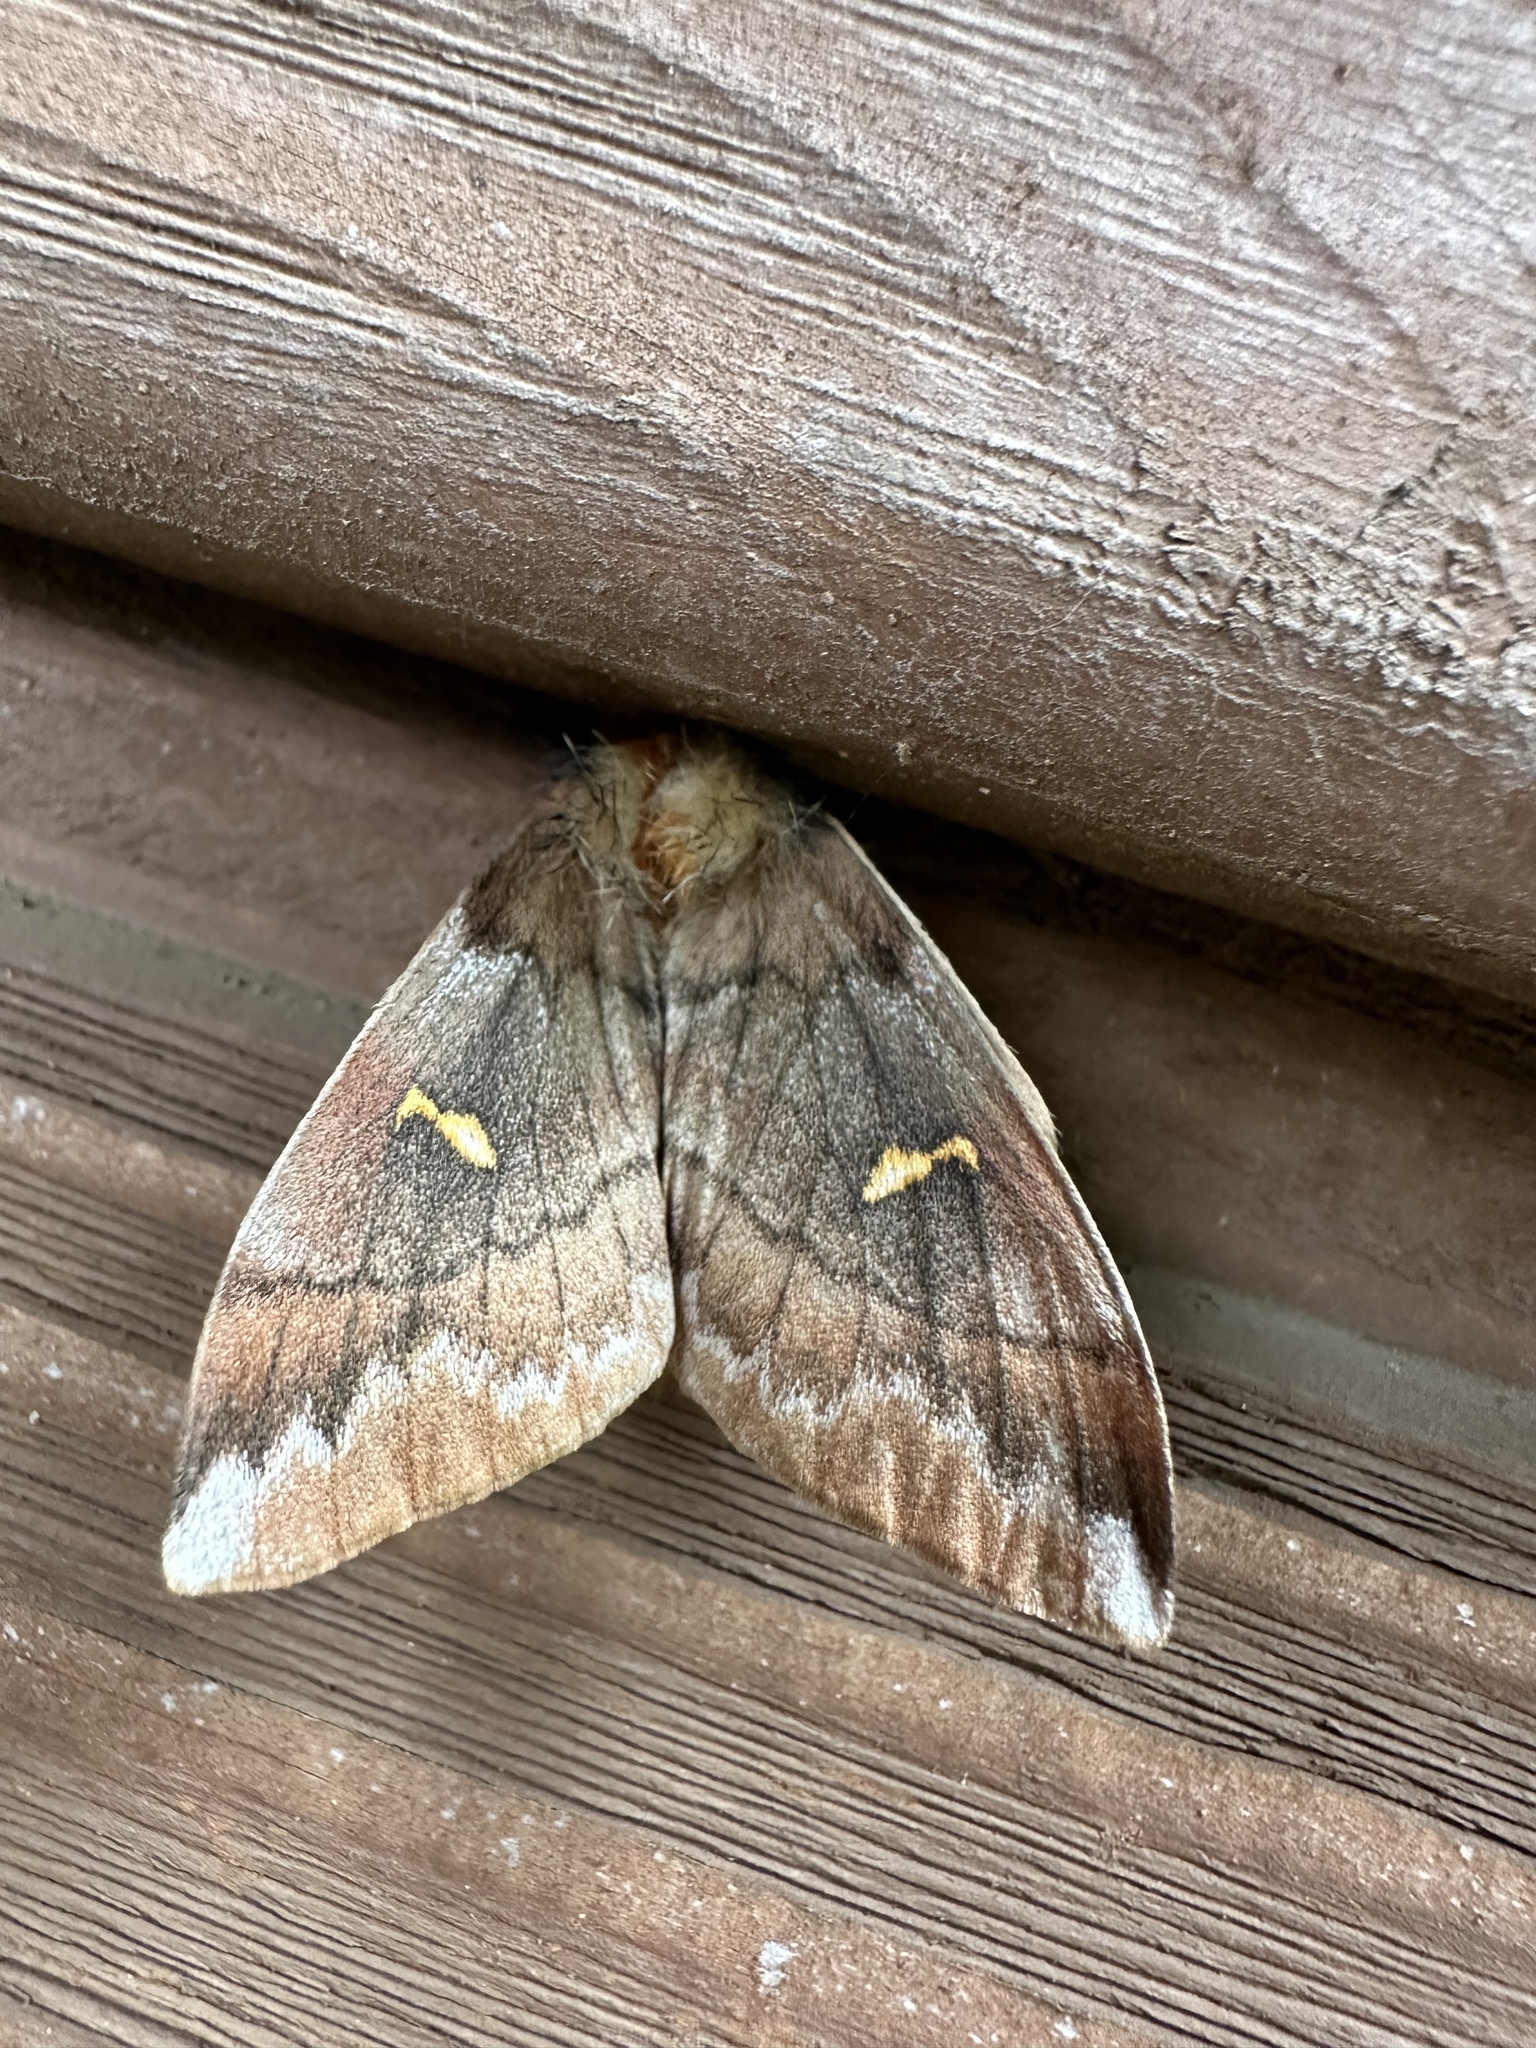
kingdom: Animalia
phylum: Arthropoda
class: Insecta
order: Lepidoptera
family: Saturniidae
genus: Ormiscodes
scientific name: Ormiscodes amphinome
